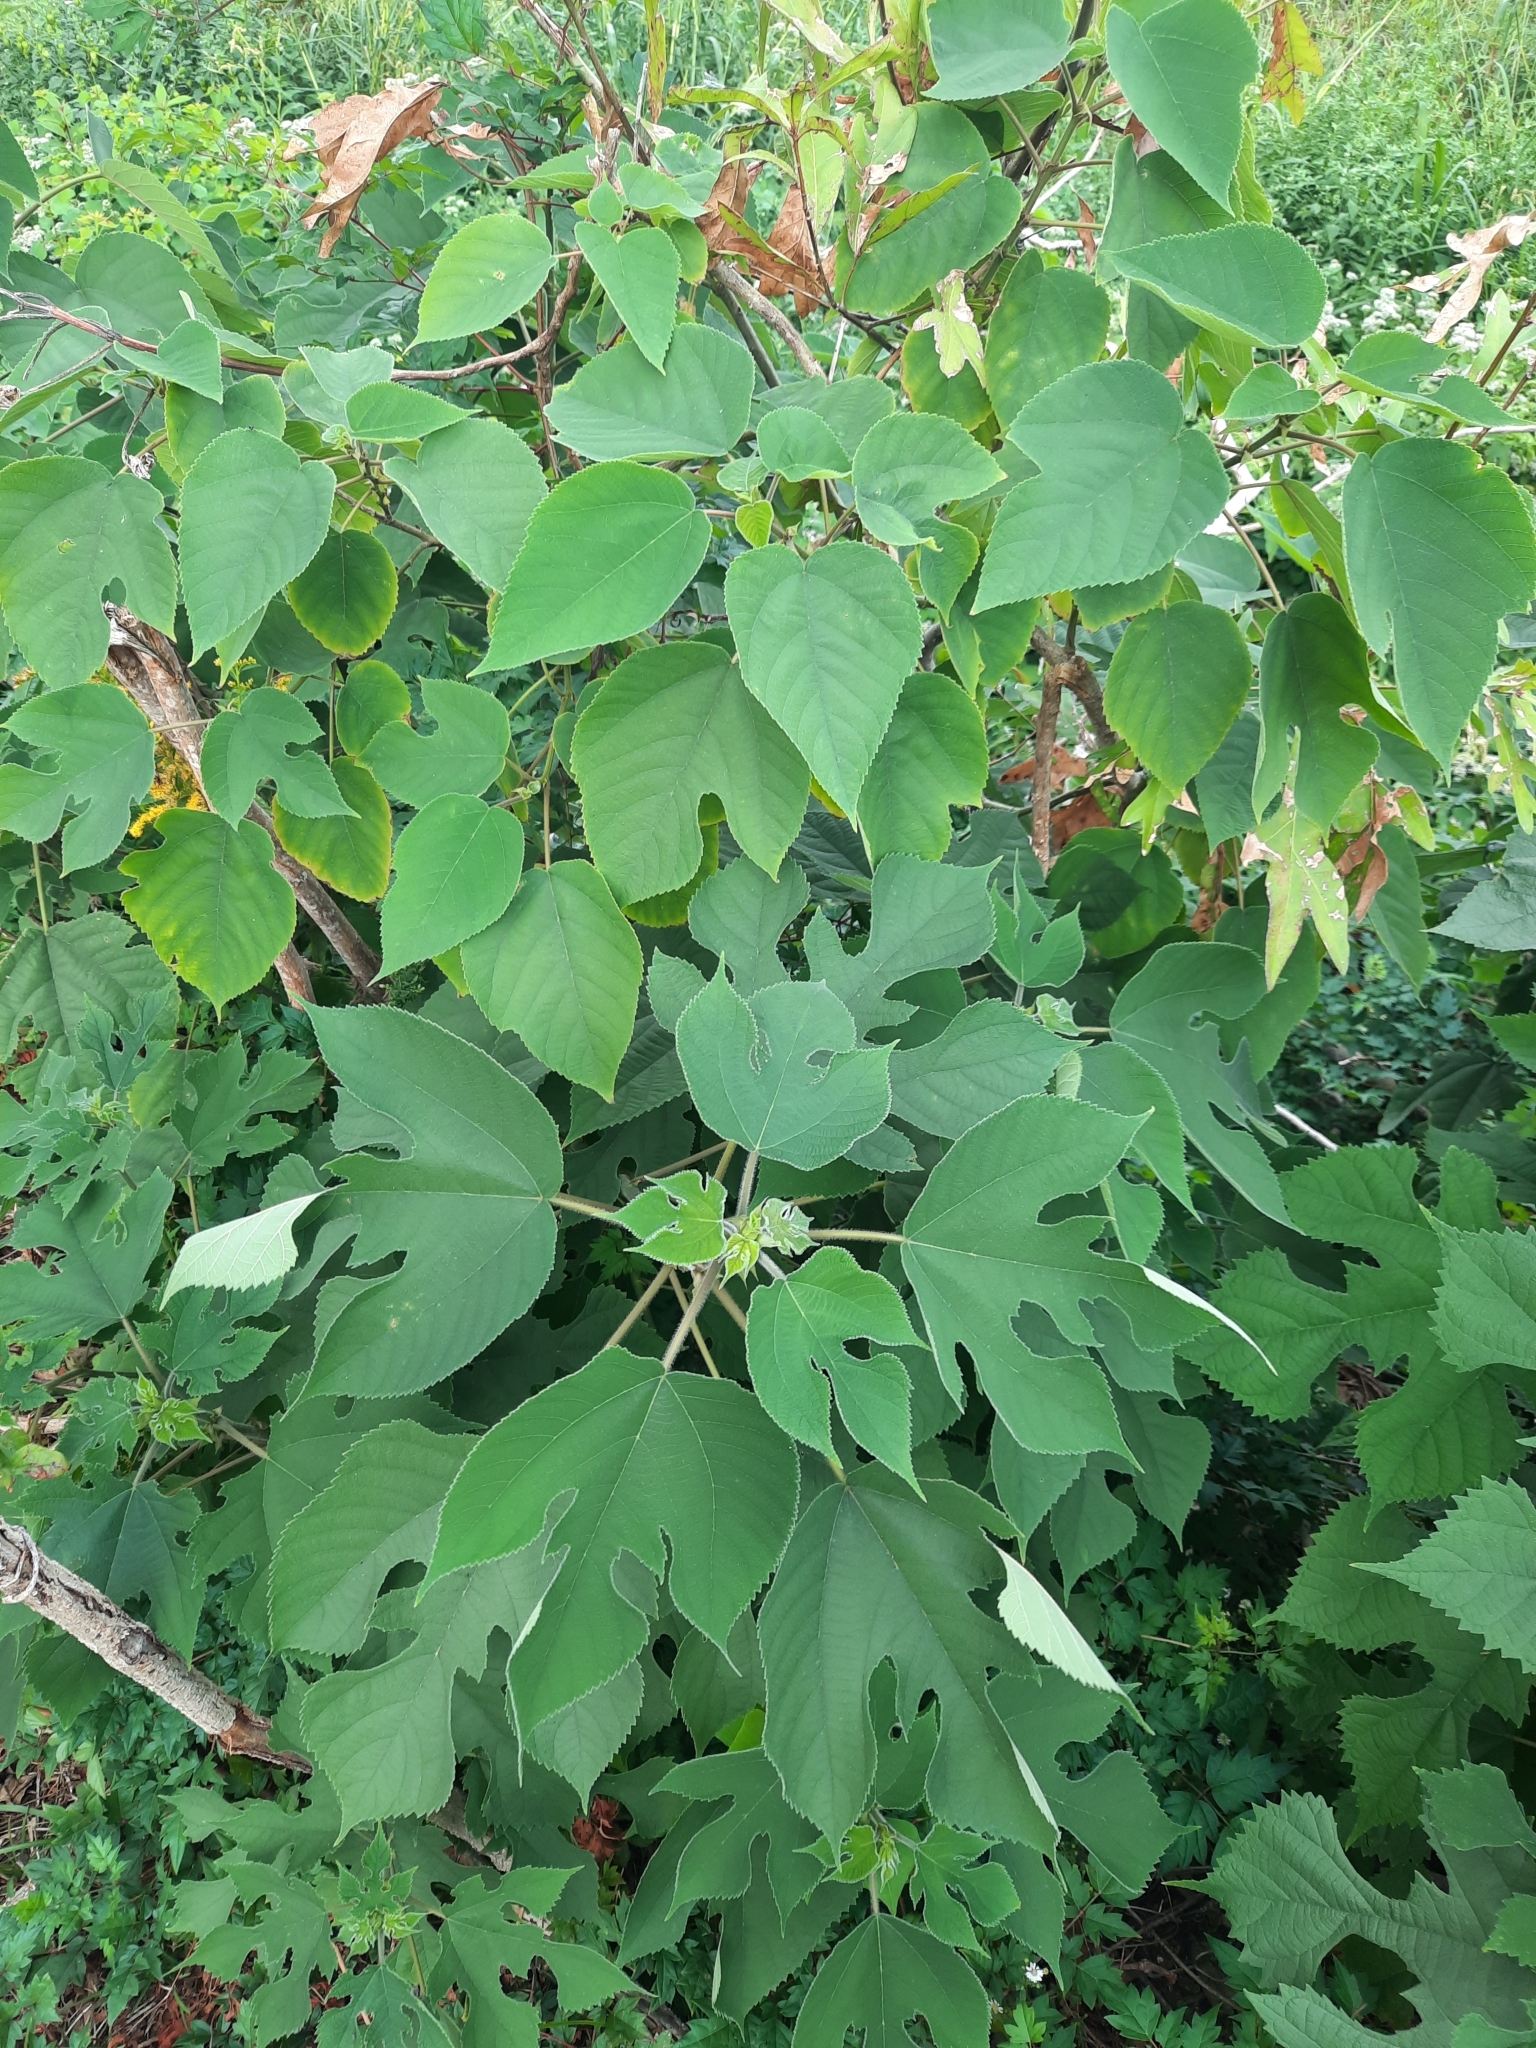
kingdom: Plantae
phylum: Tracheophyta
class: Magnoliopsida
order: Rosales
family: Moraceae
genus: Broussonetia
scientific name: Broussonetia papyrifera
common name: Paper mulberry
